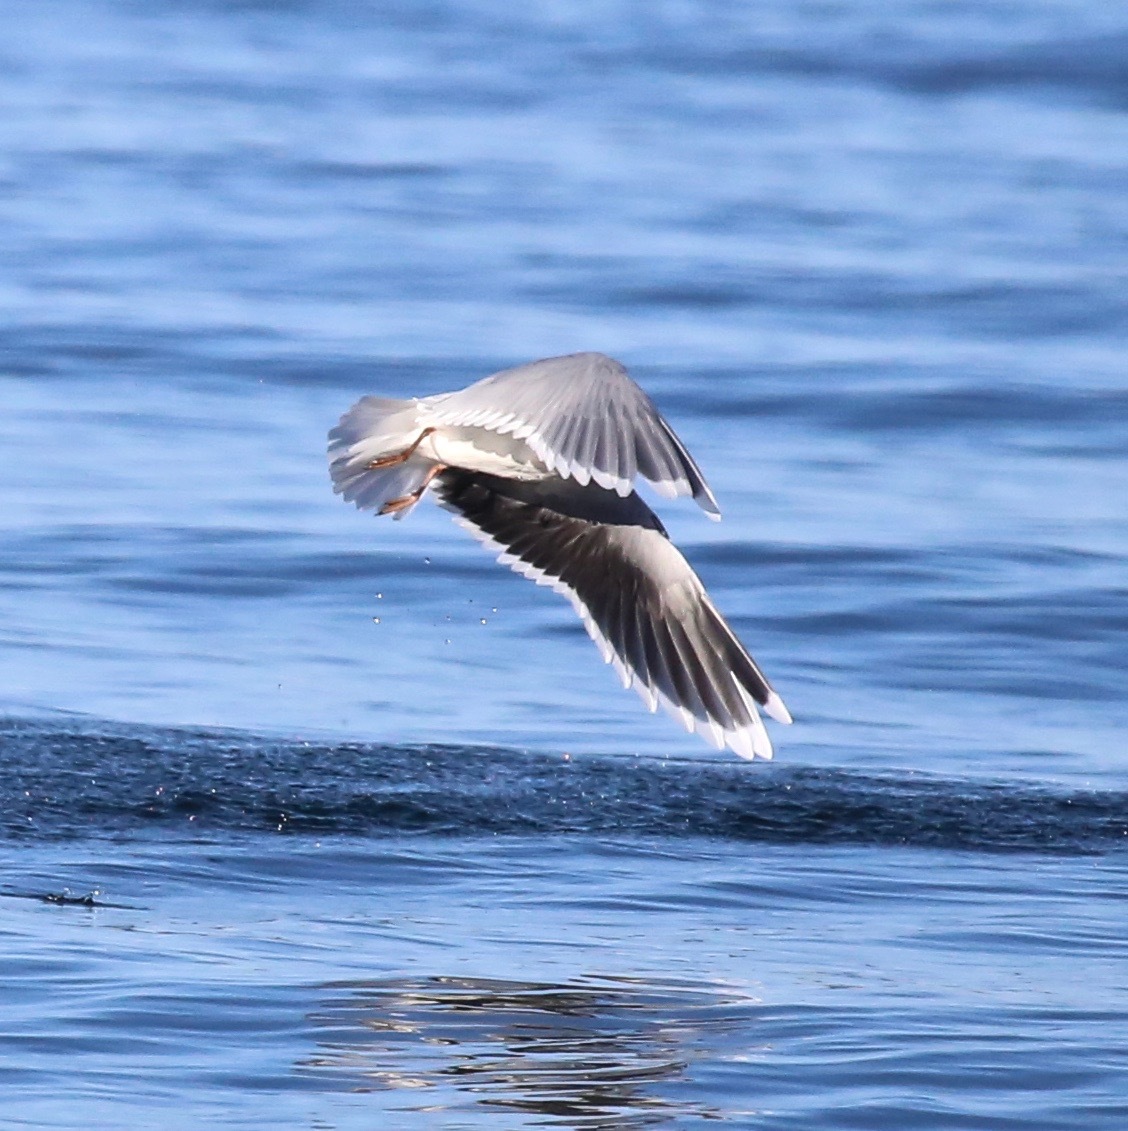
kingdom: Animalia
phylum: Chordata
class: Aves
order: Charadriiformes
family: Laridae
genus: Hydrocoloeus
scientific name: Hydrocoloeus minutus
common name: Little gull
